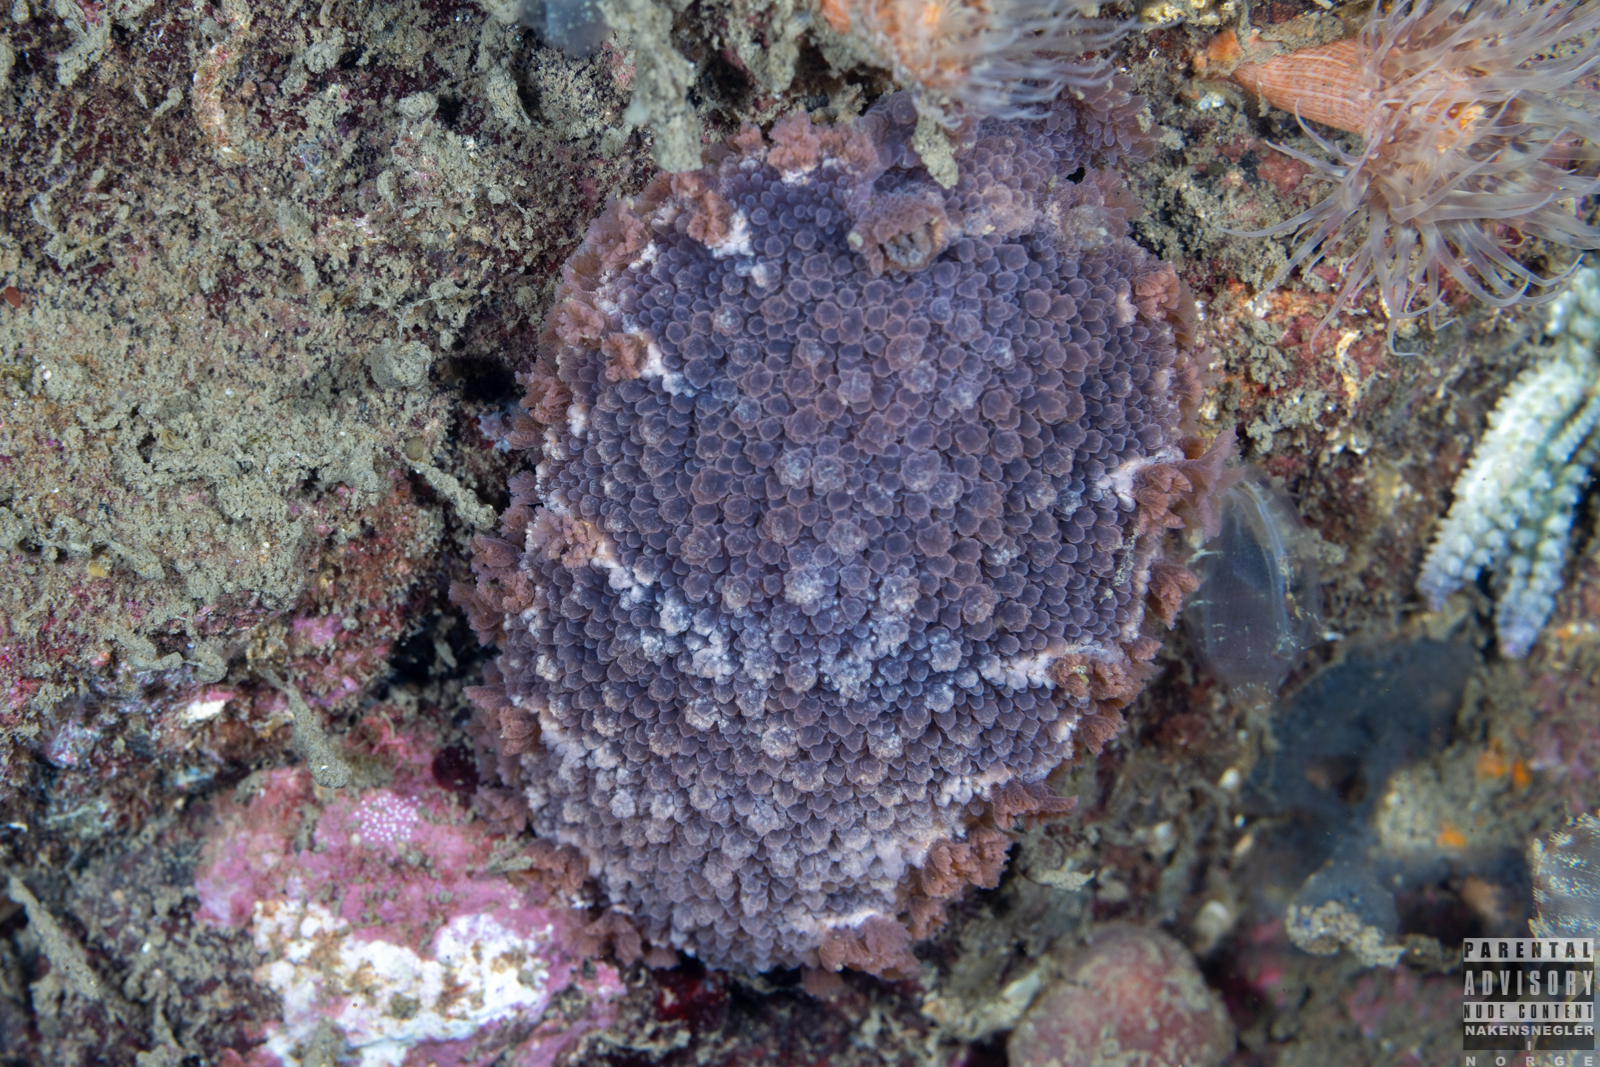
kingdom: Animalia
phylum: Mollusca
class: Gastropoda
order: Nudibranchia
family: Tritoniidae
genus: Tritonia
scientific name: Tritonia hombergii
